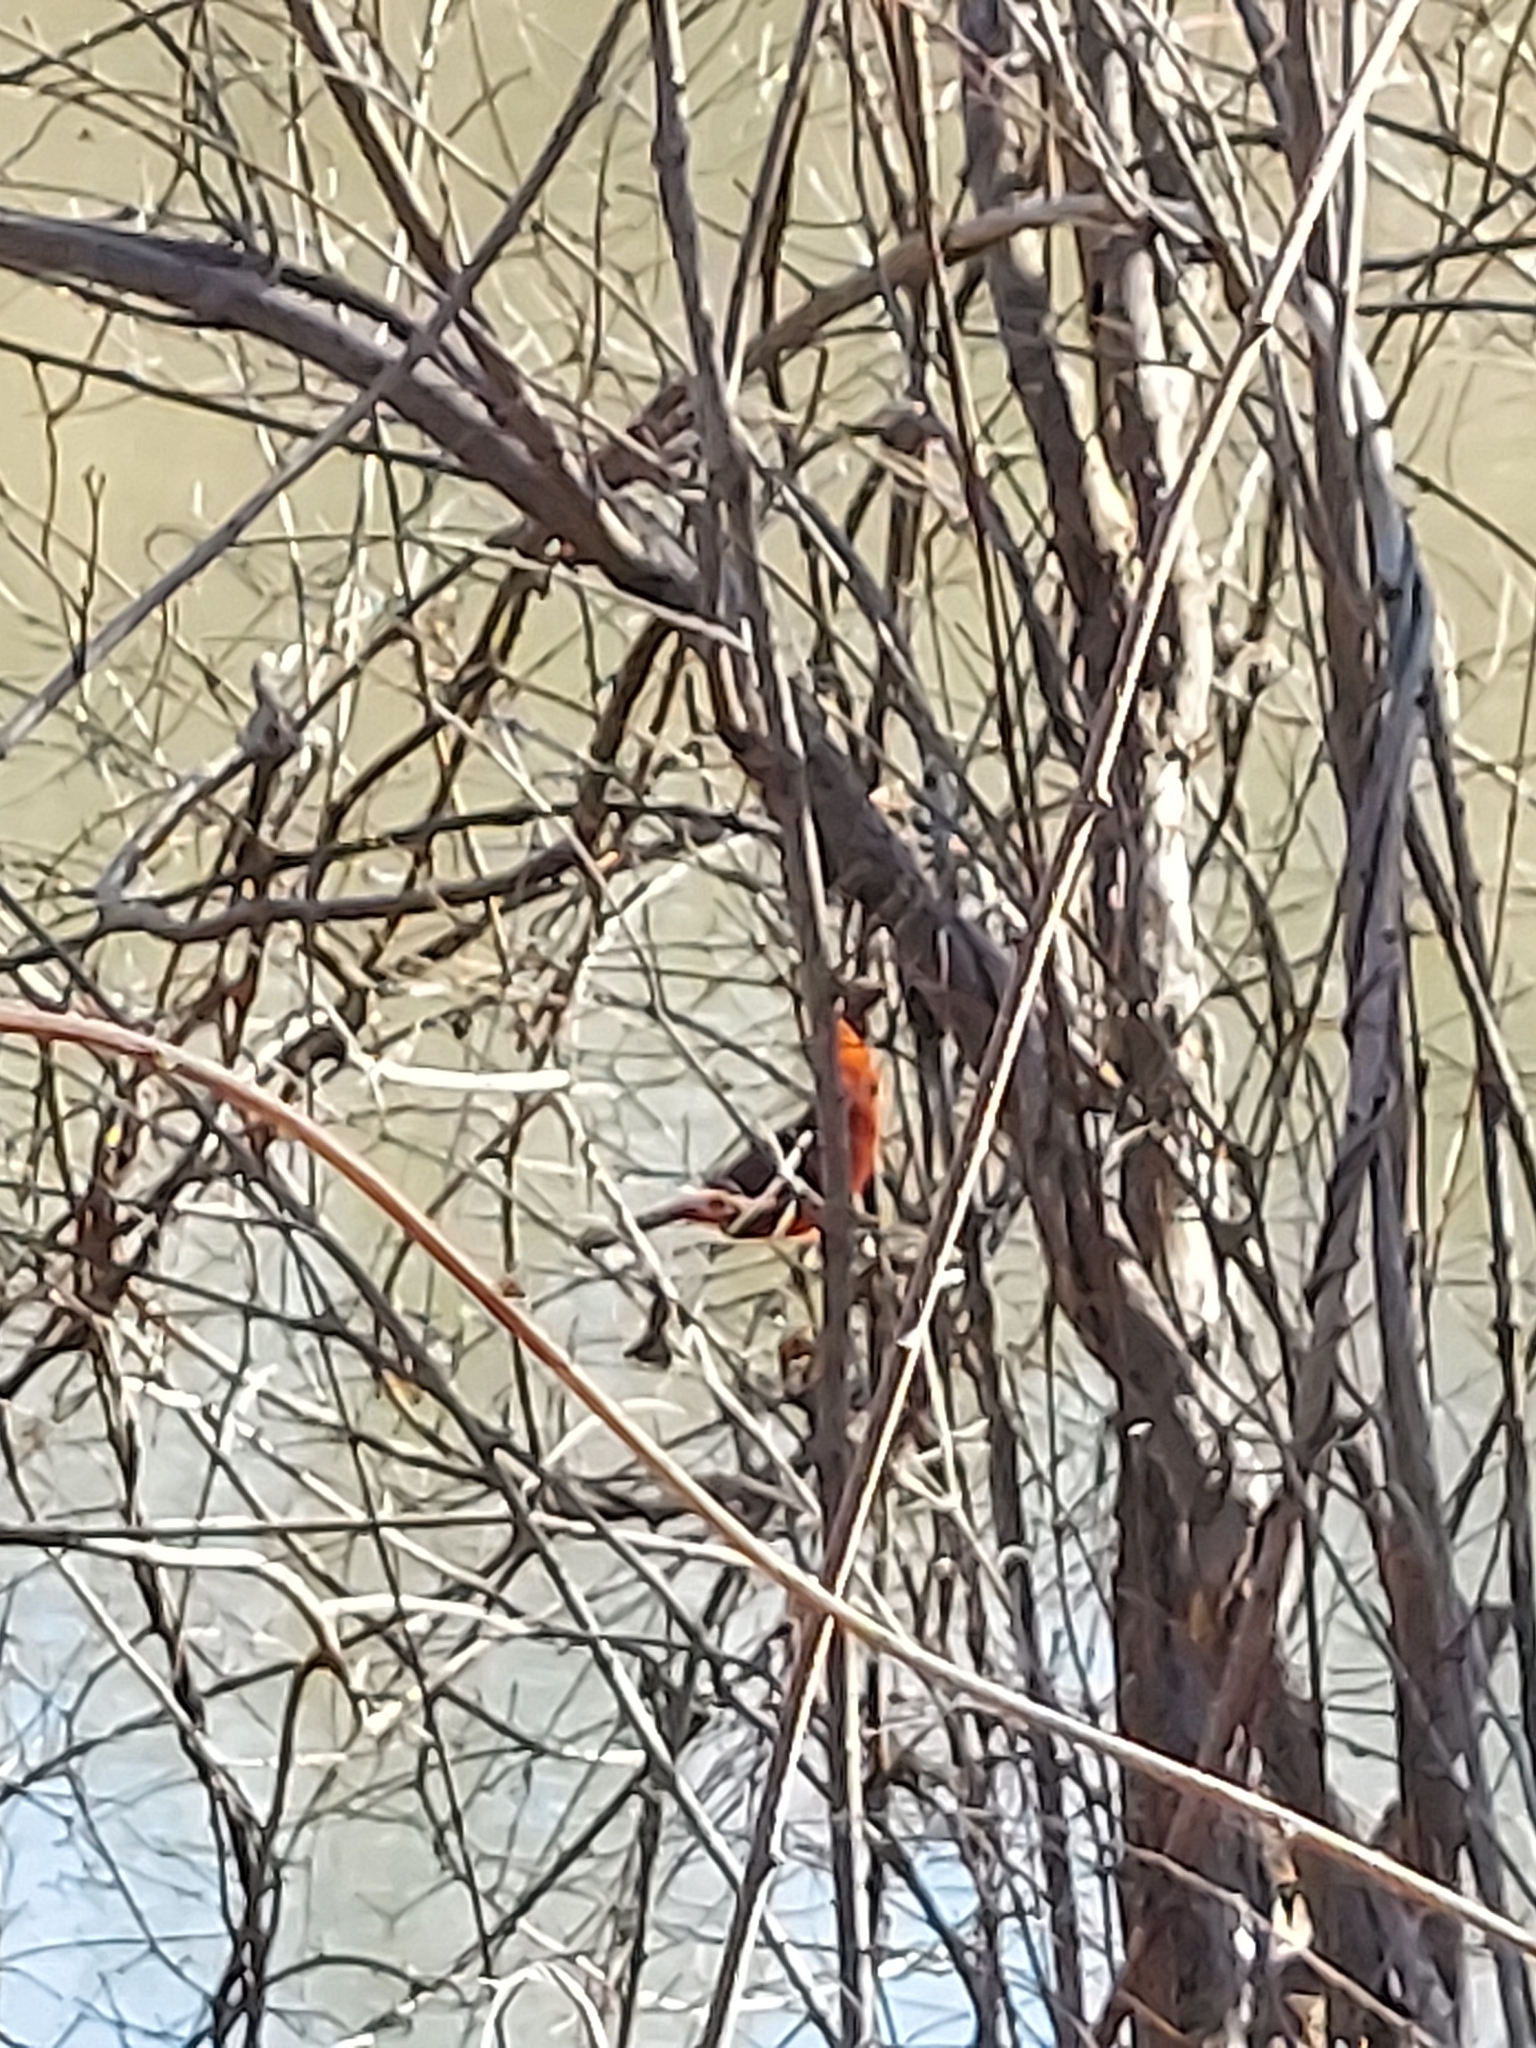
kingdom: Animalia
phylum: Chordata
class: Aves
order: Passeriformes
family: Cardinalidae
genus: Cardinalis
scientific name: Cardinalis cardinalis
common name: Northern cardinal
